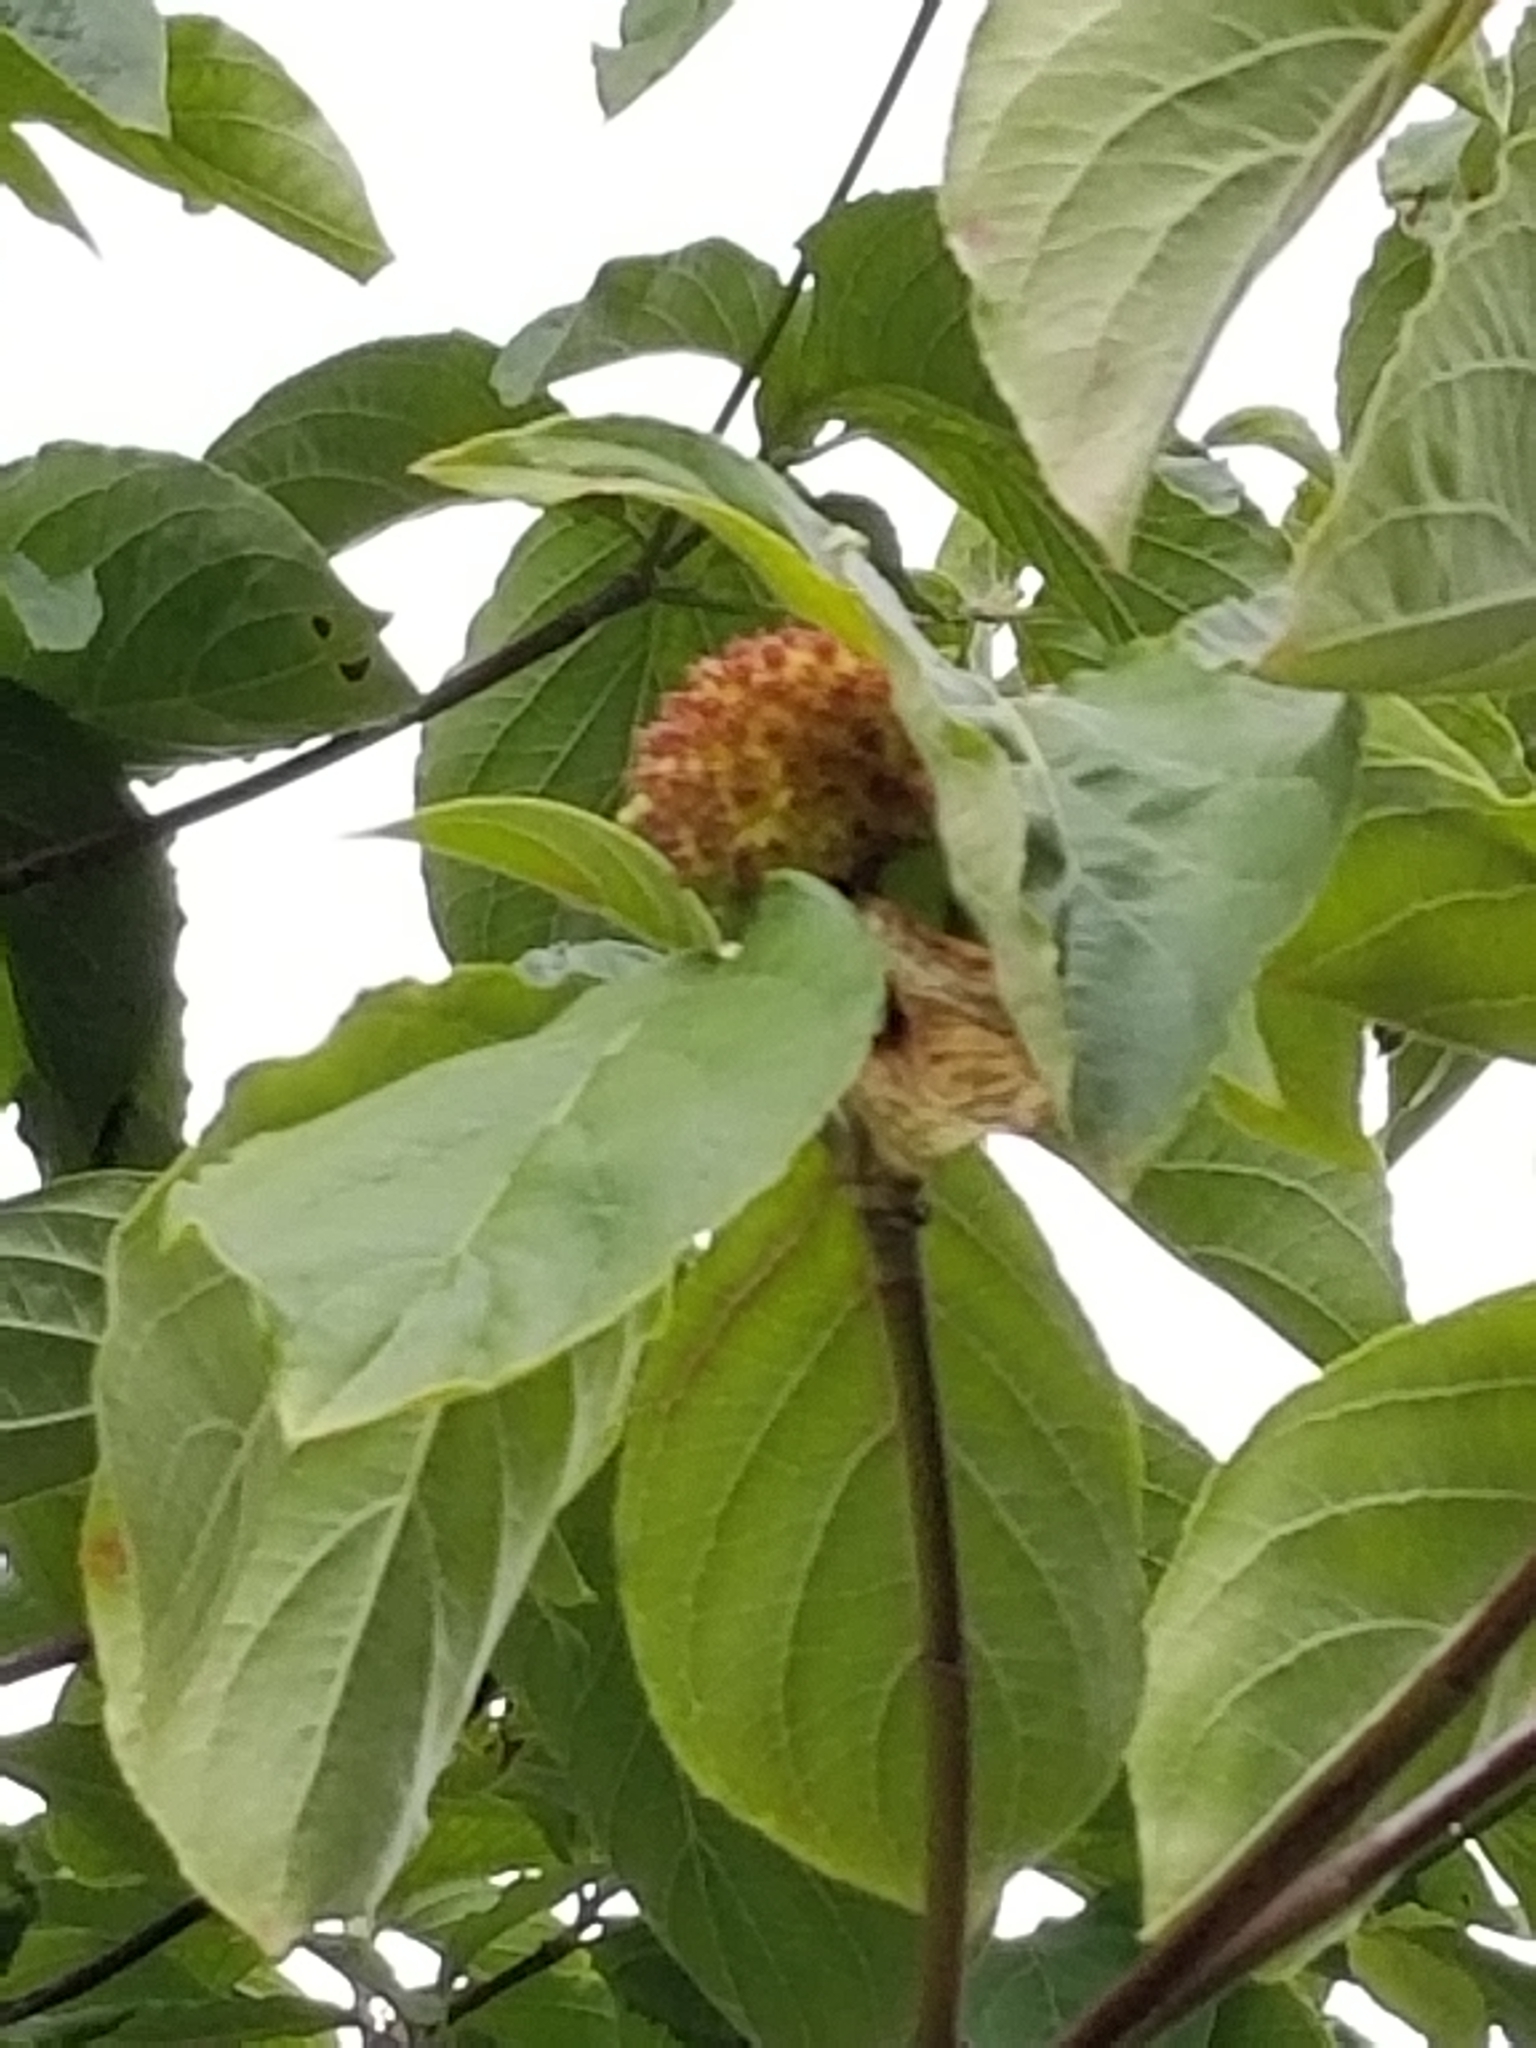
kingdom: Plantae
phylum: Tracheophyta
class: Magnoliopsida
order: Cornales
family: Cornaceae
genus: Cornus
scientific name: Cornus nuttallii
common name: Pacific dogwood
